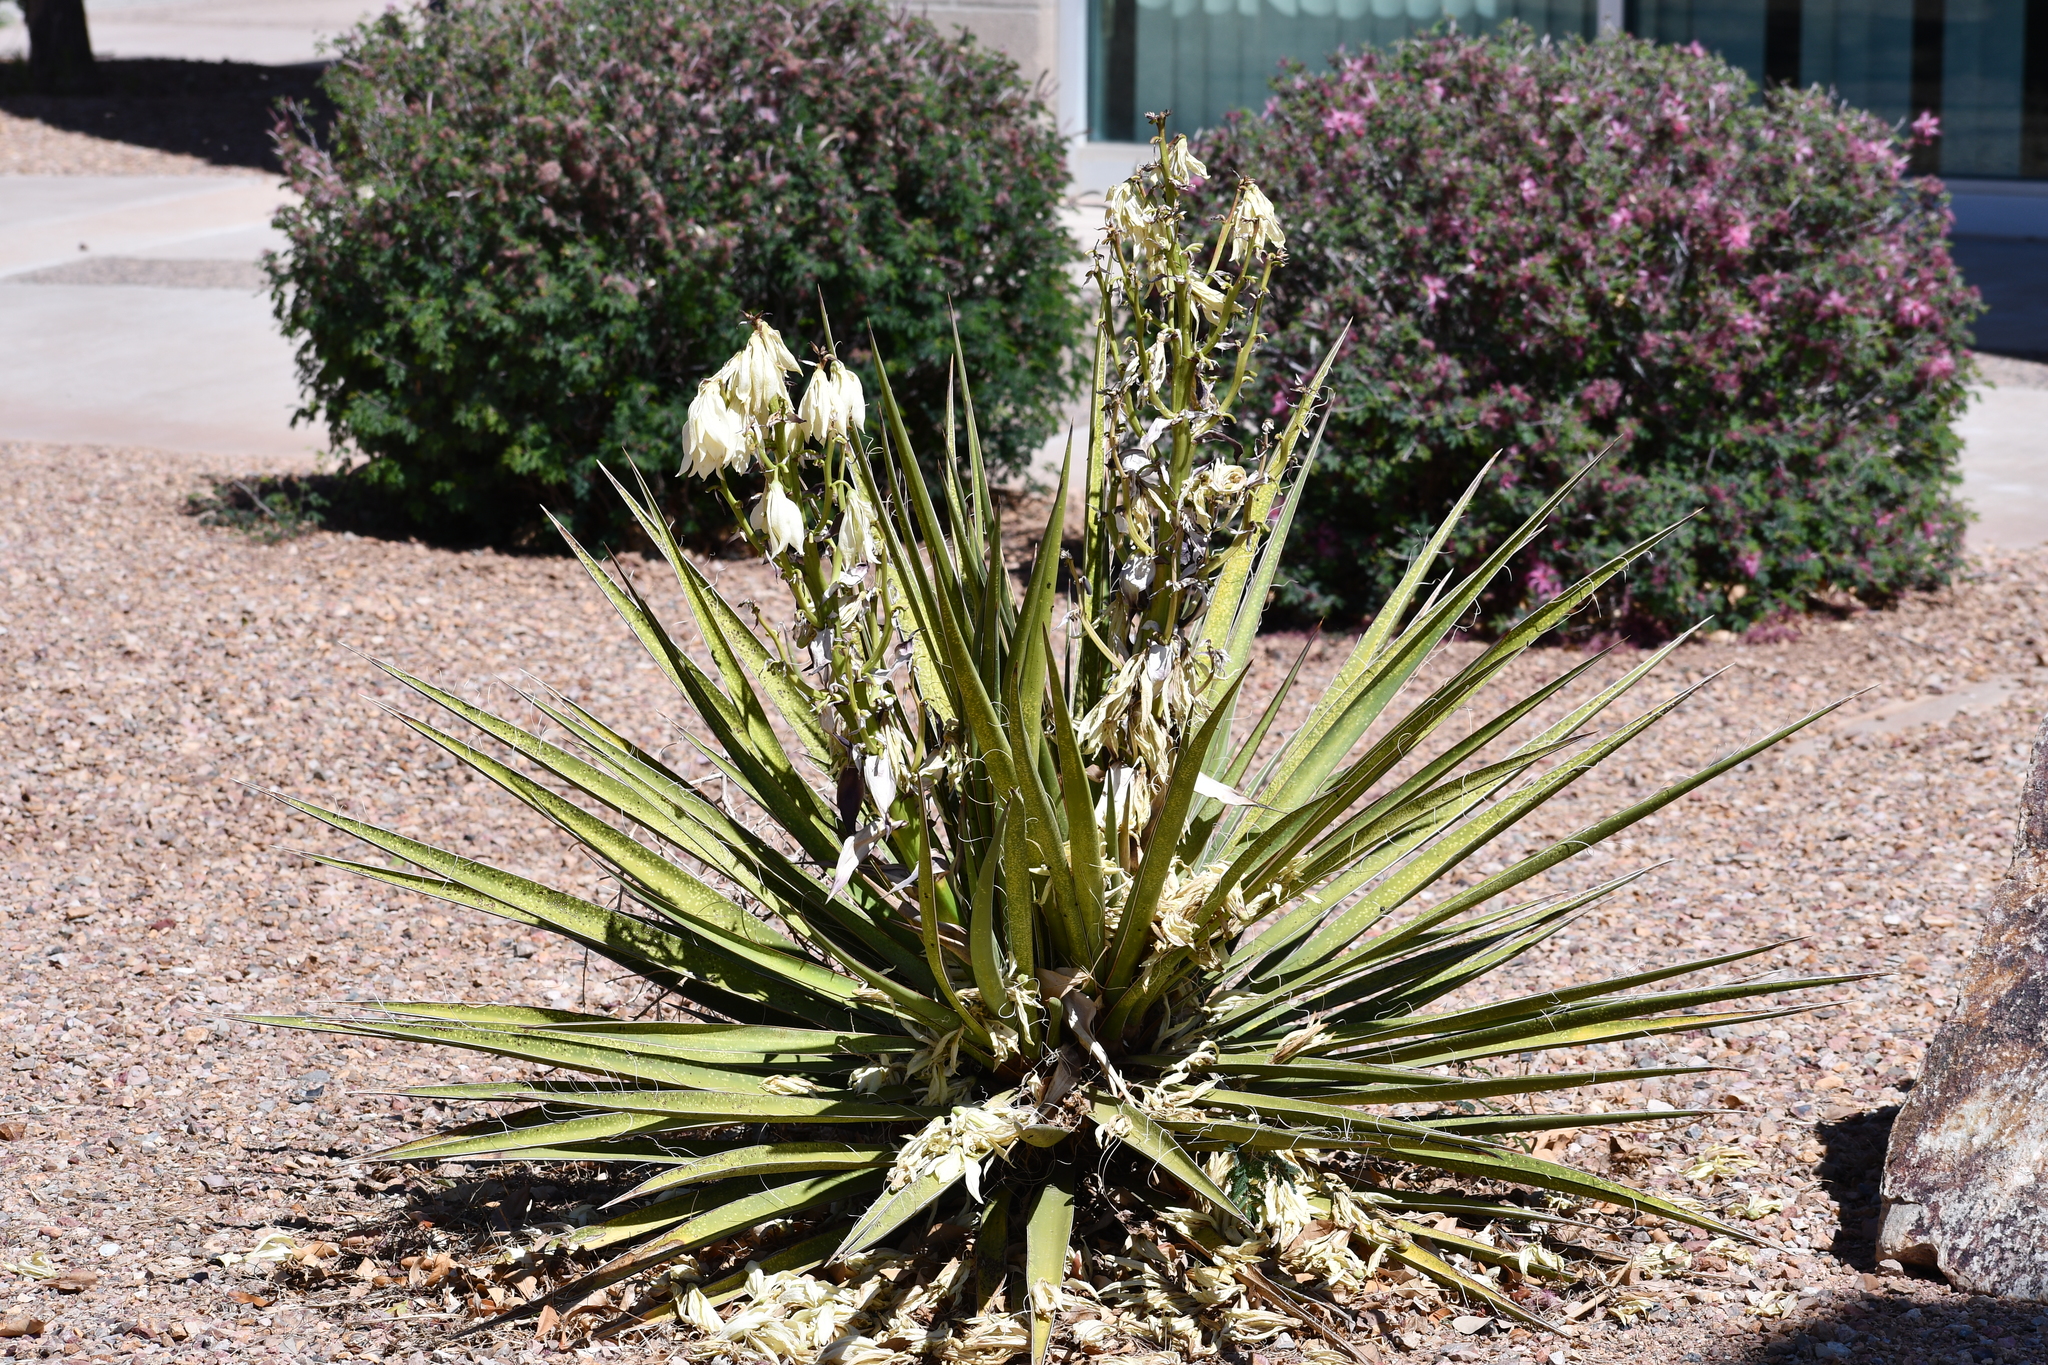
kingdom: Plantae
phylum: Tracheophyta
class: Liliopsida
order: Asparagales
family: Asparagaceae
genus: Yucca
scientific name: Yucca baccata
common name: Banana yucca
